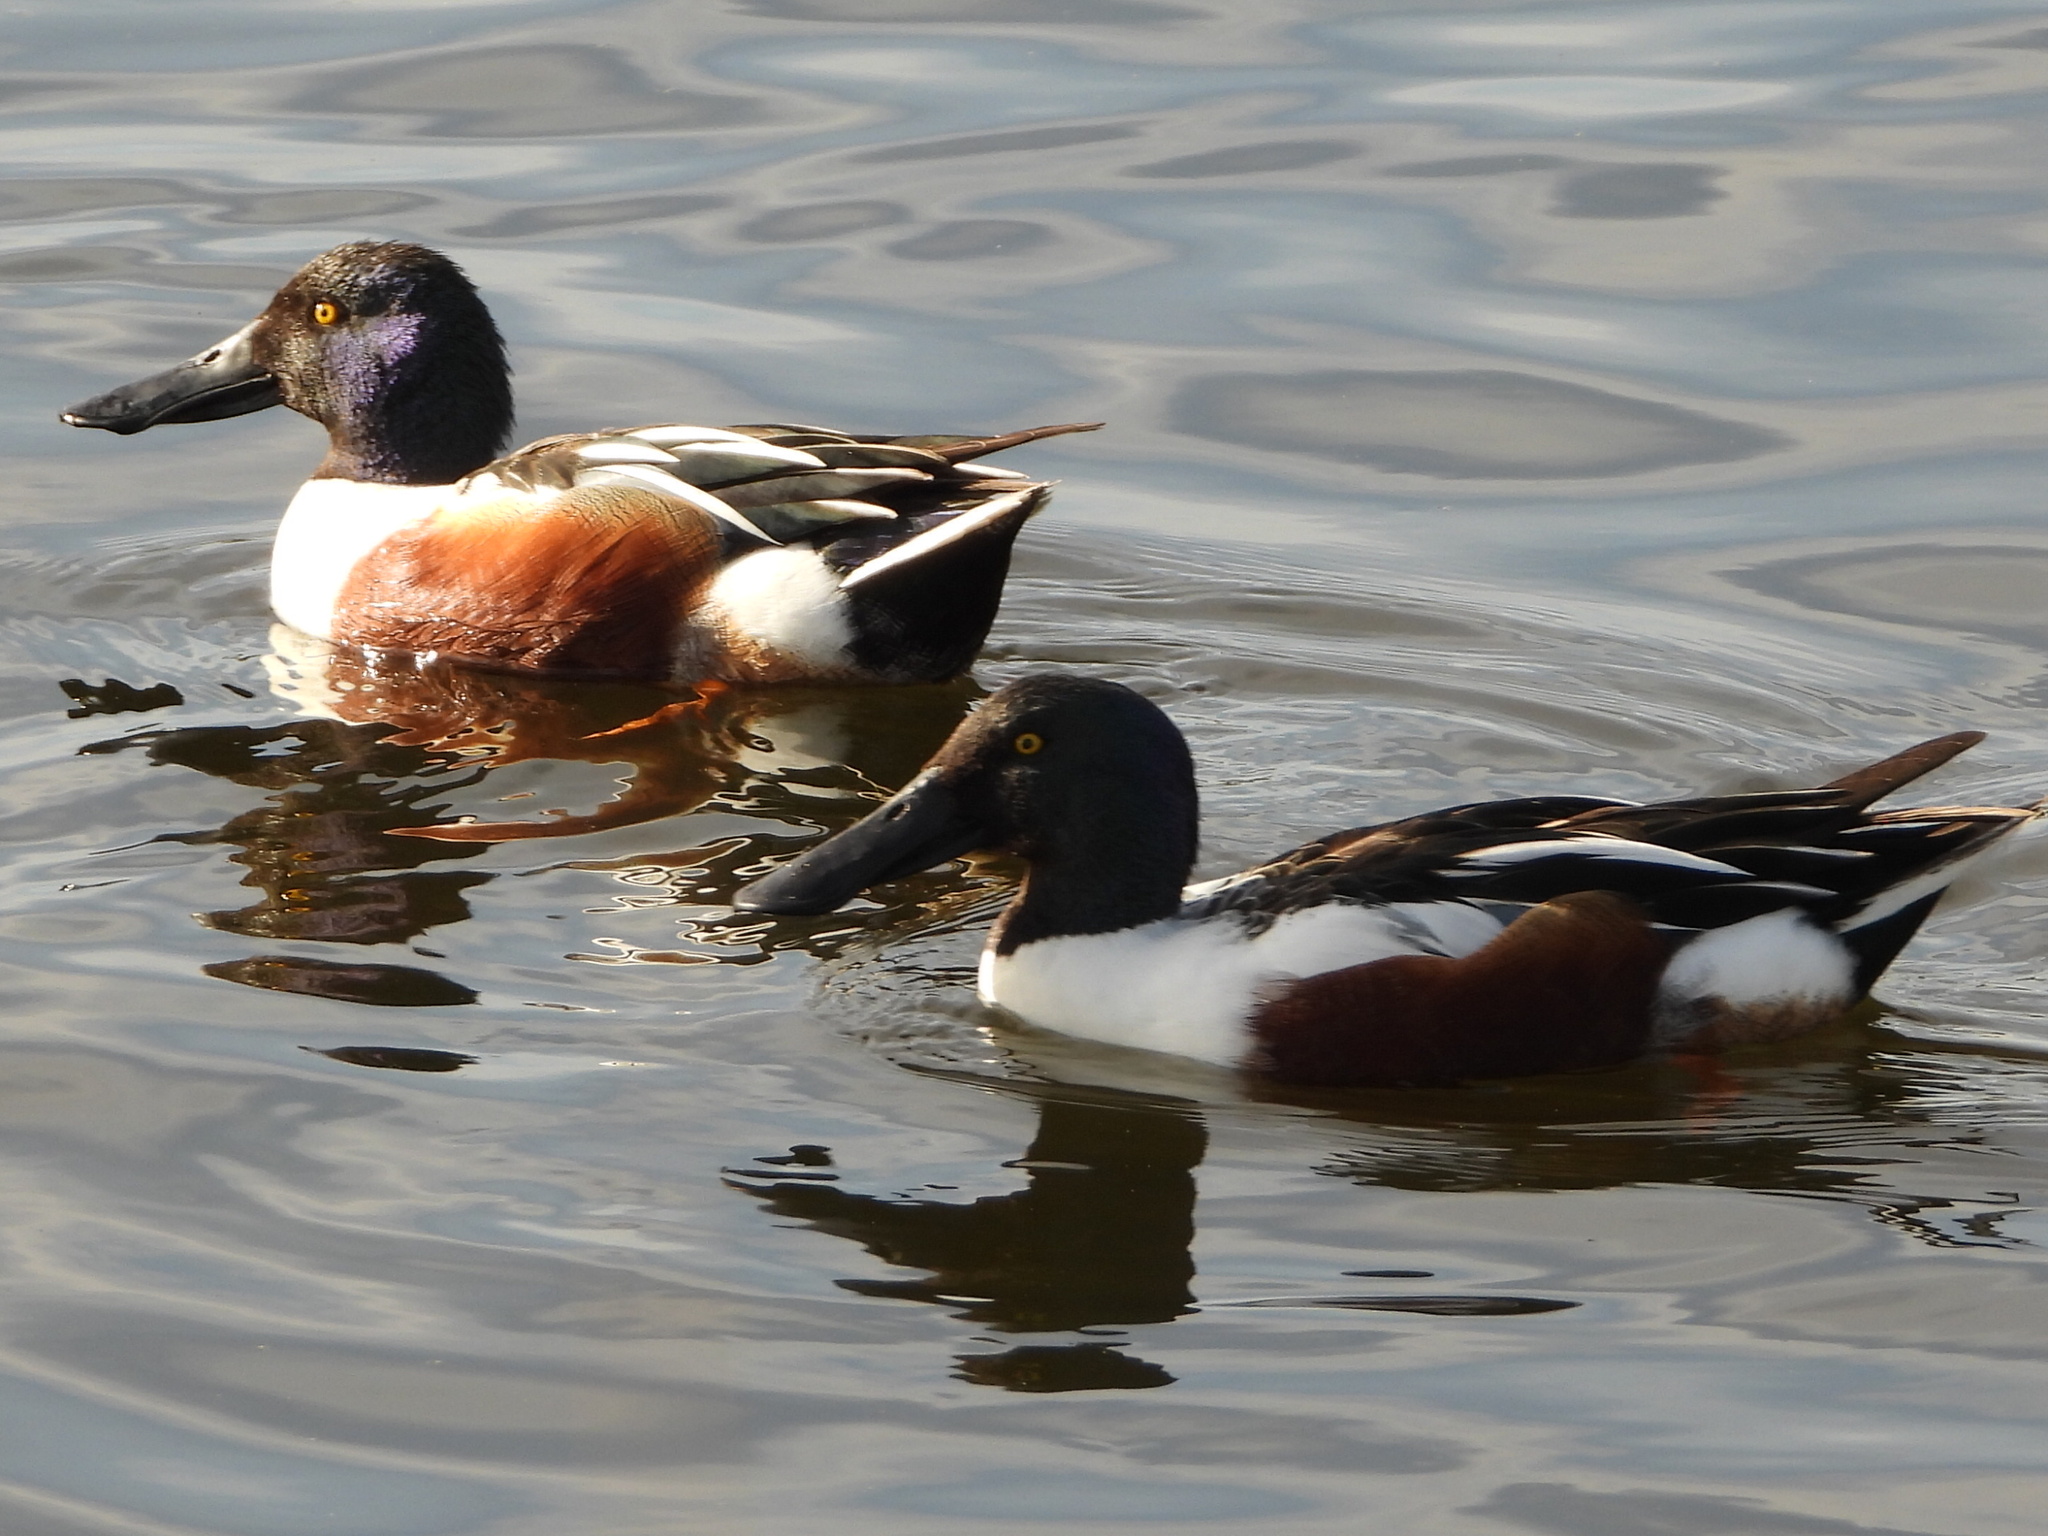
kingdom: Animalia
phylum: Chordata
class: Aves
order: Anseriformes
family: Anatidae
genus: Spatula
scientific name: Spatula clypeata
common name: Northern shoveler
